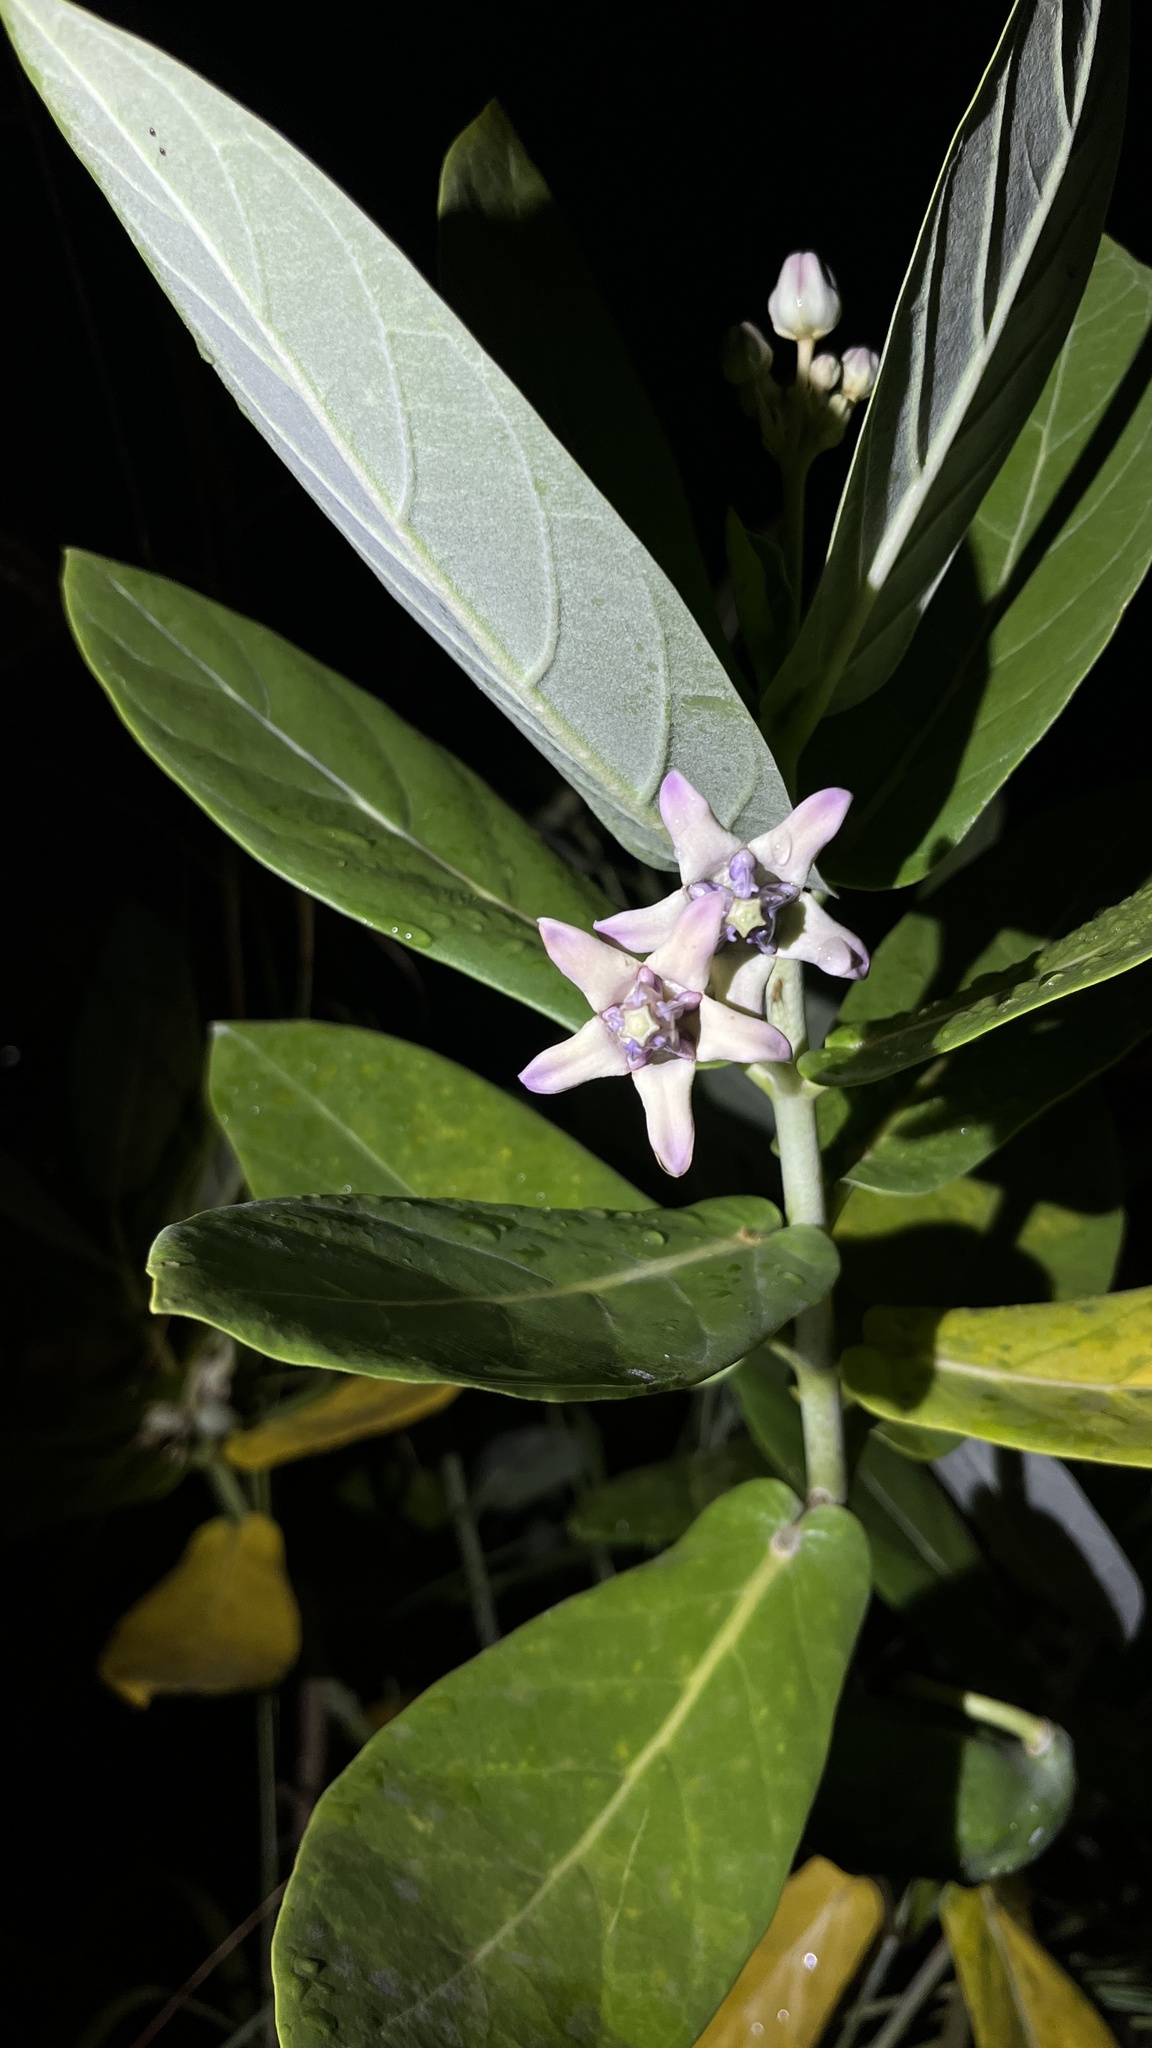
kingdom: Plantae
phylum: Tracheophyta
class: Magnoliopsida
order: Gentianales
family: Apocynaceae
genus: Calotropis
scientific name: Calotropis gigantea
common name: Crown flower
